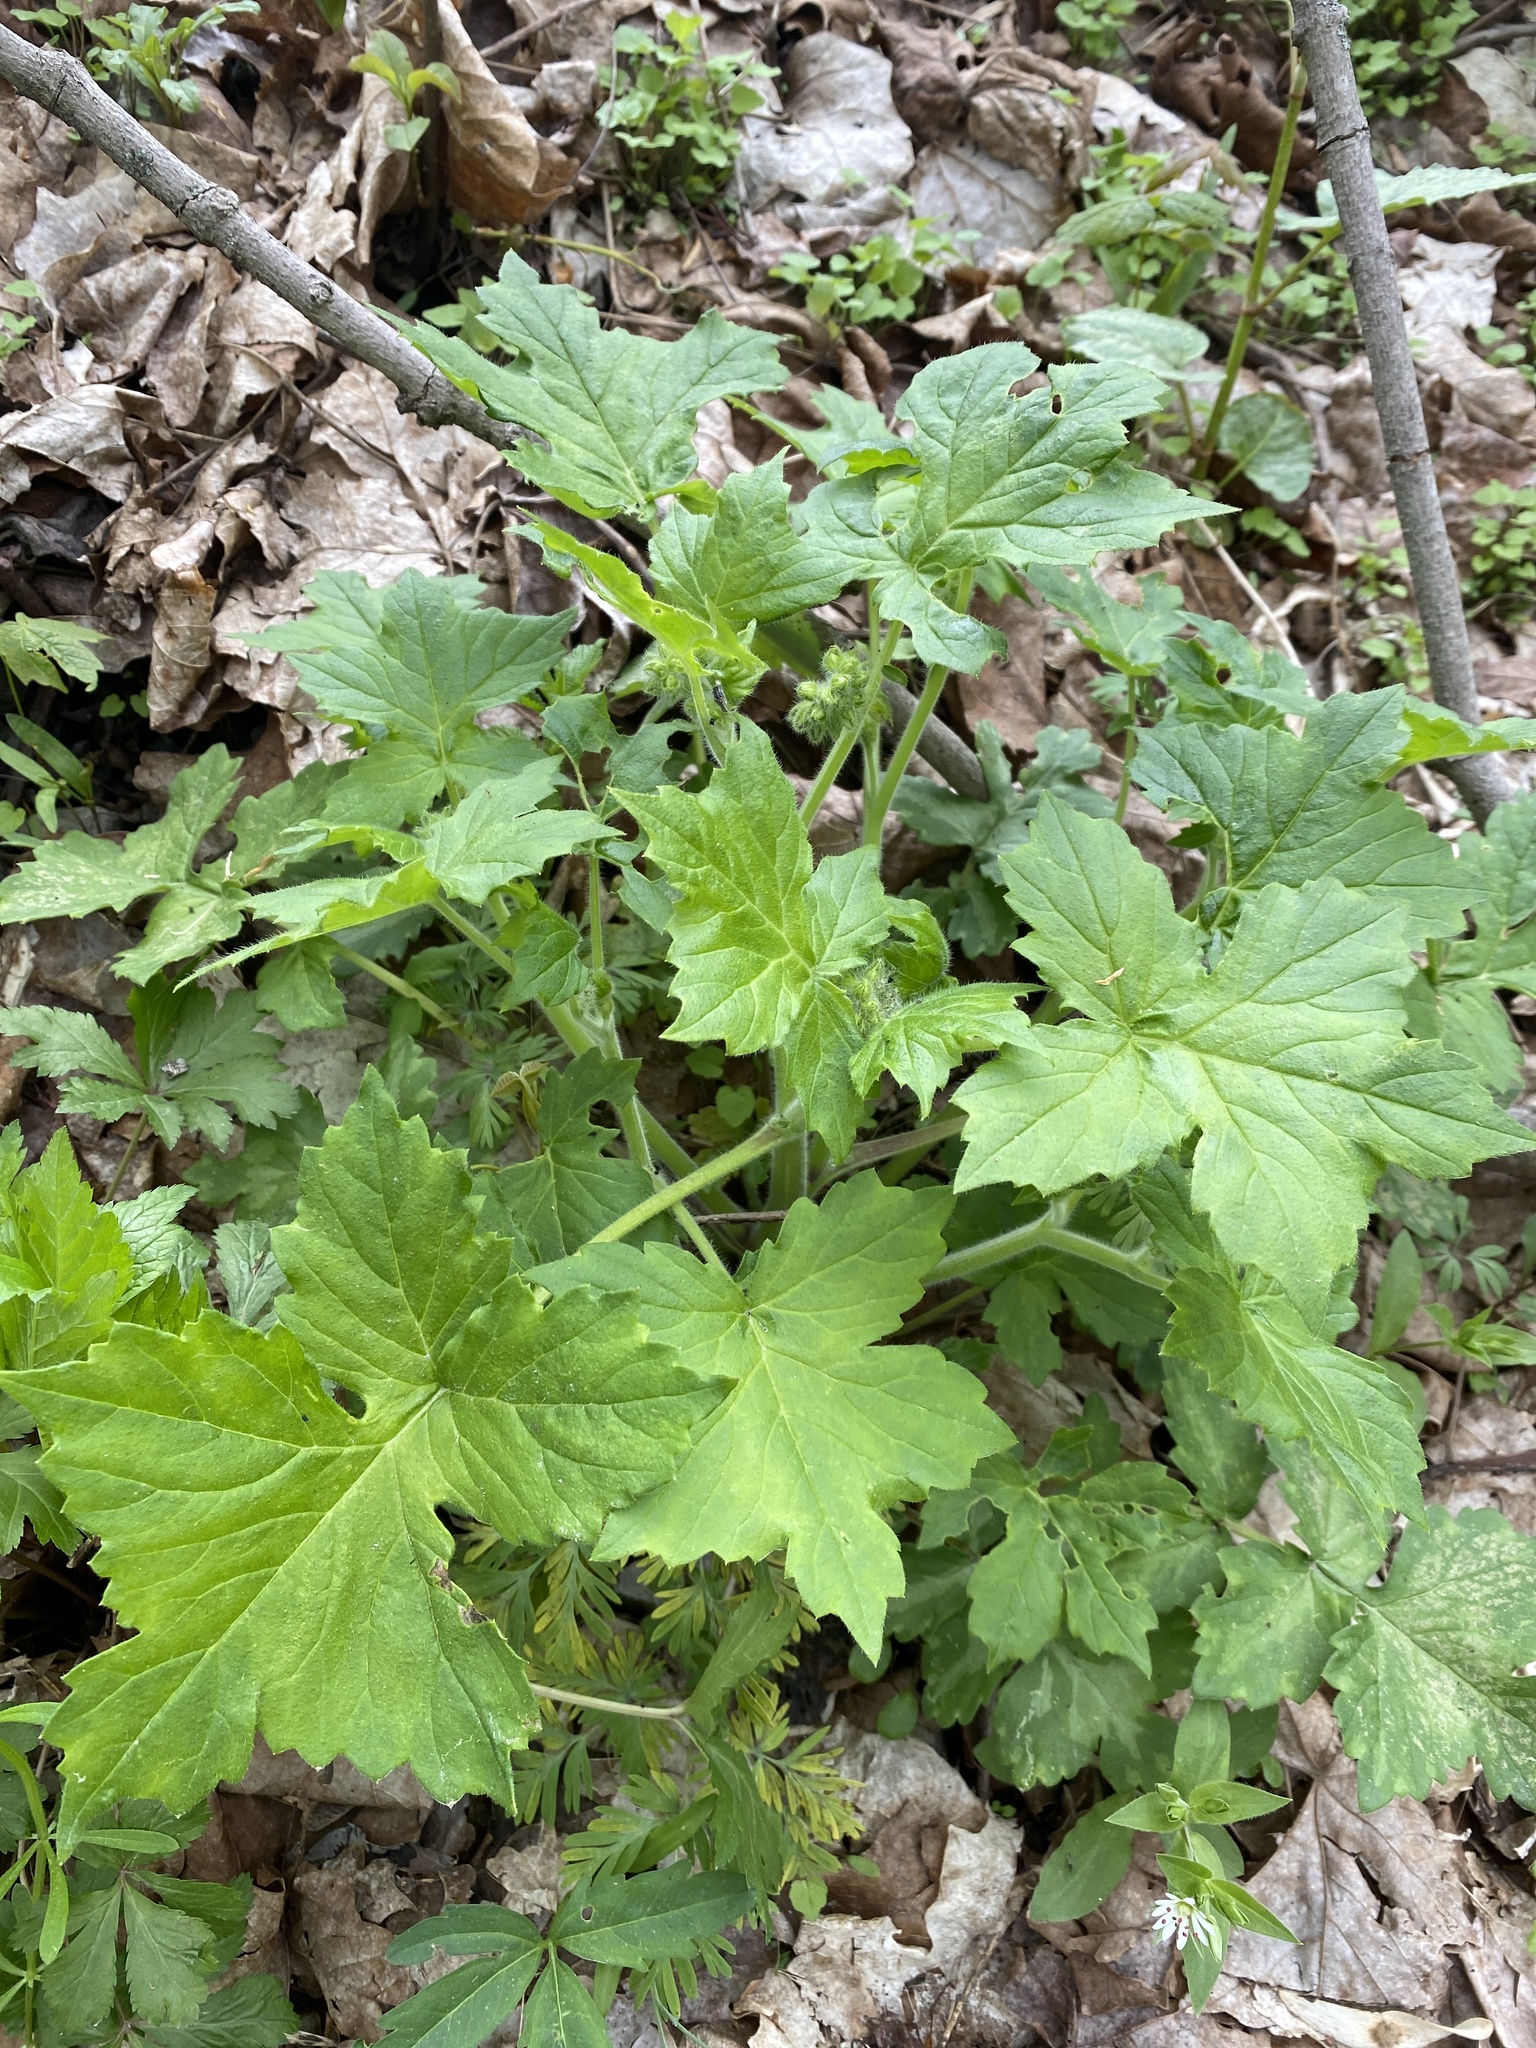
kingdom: Plantae
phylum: Tracheophyta
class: Magnoliopsida
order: Boraginales
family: Hydrophyllaceae
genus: Hydrophyllum
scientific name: Hydrophyllum appendiculatum
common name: Appendaged waterleaf
